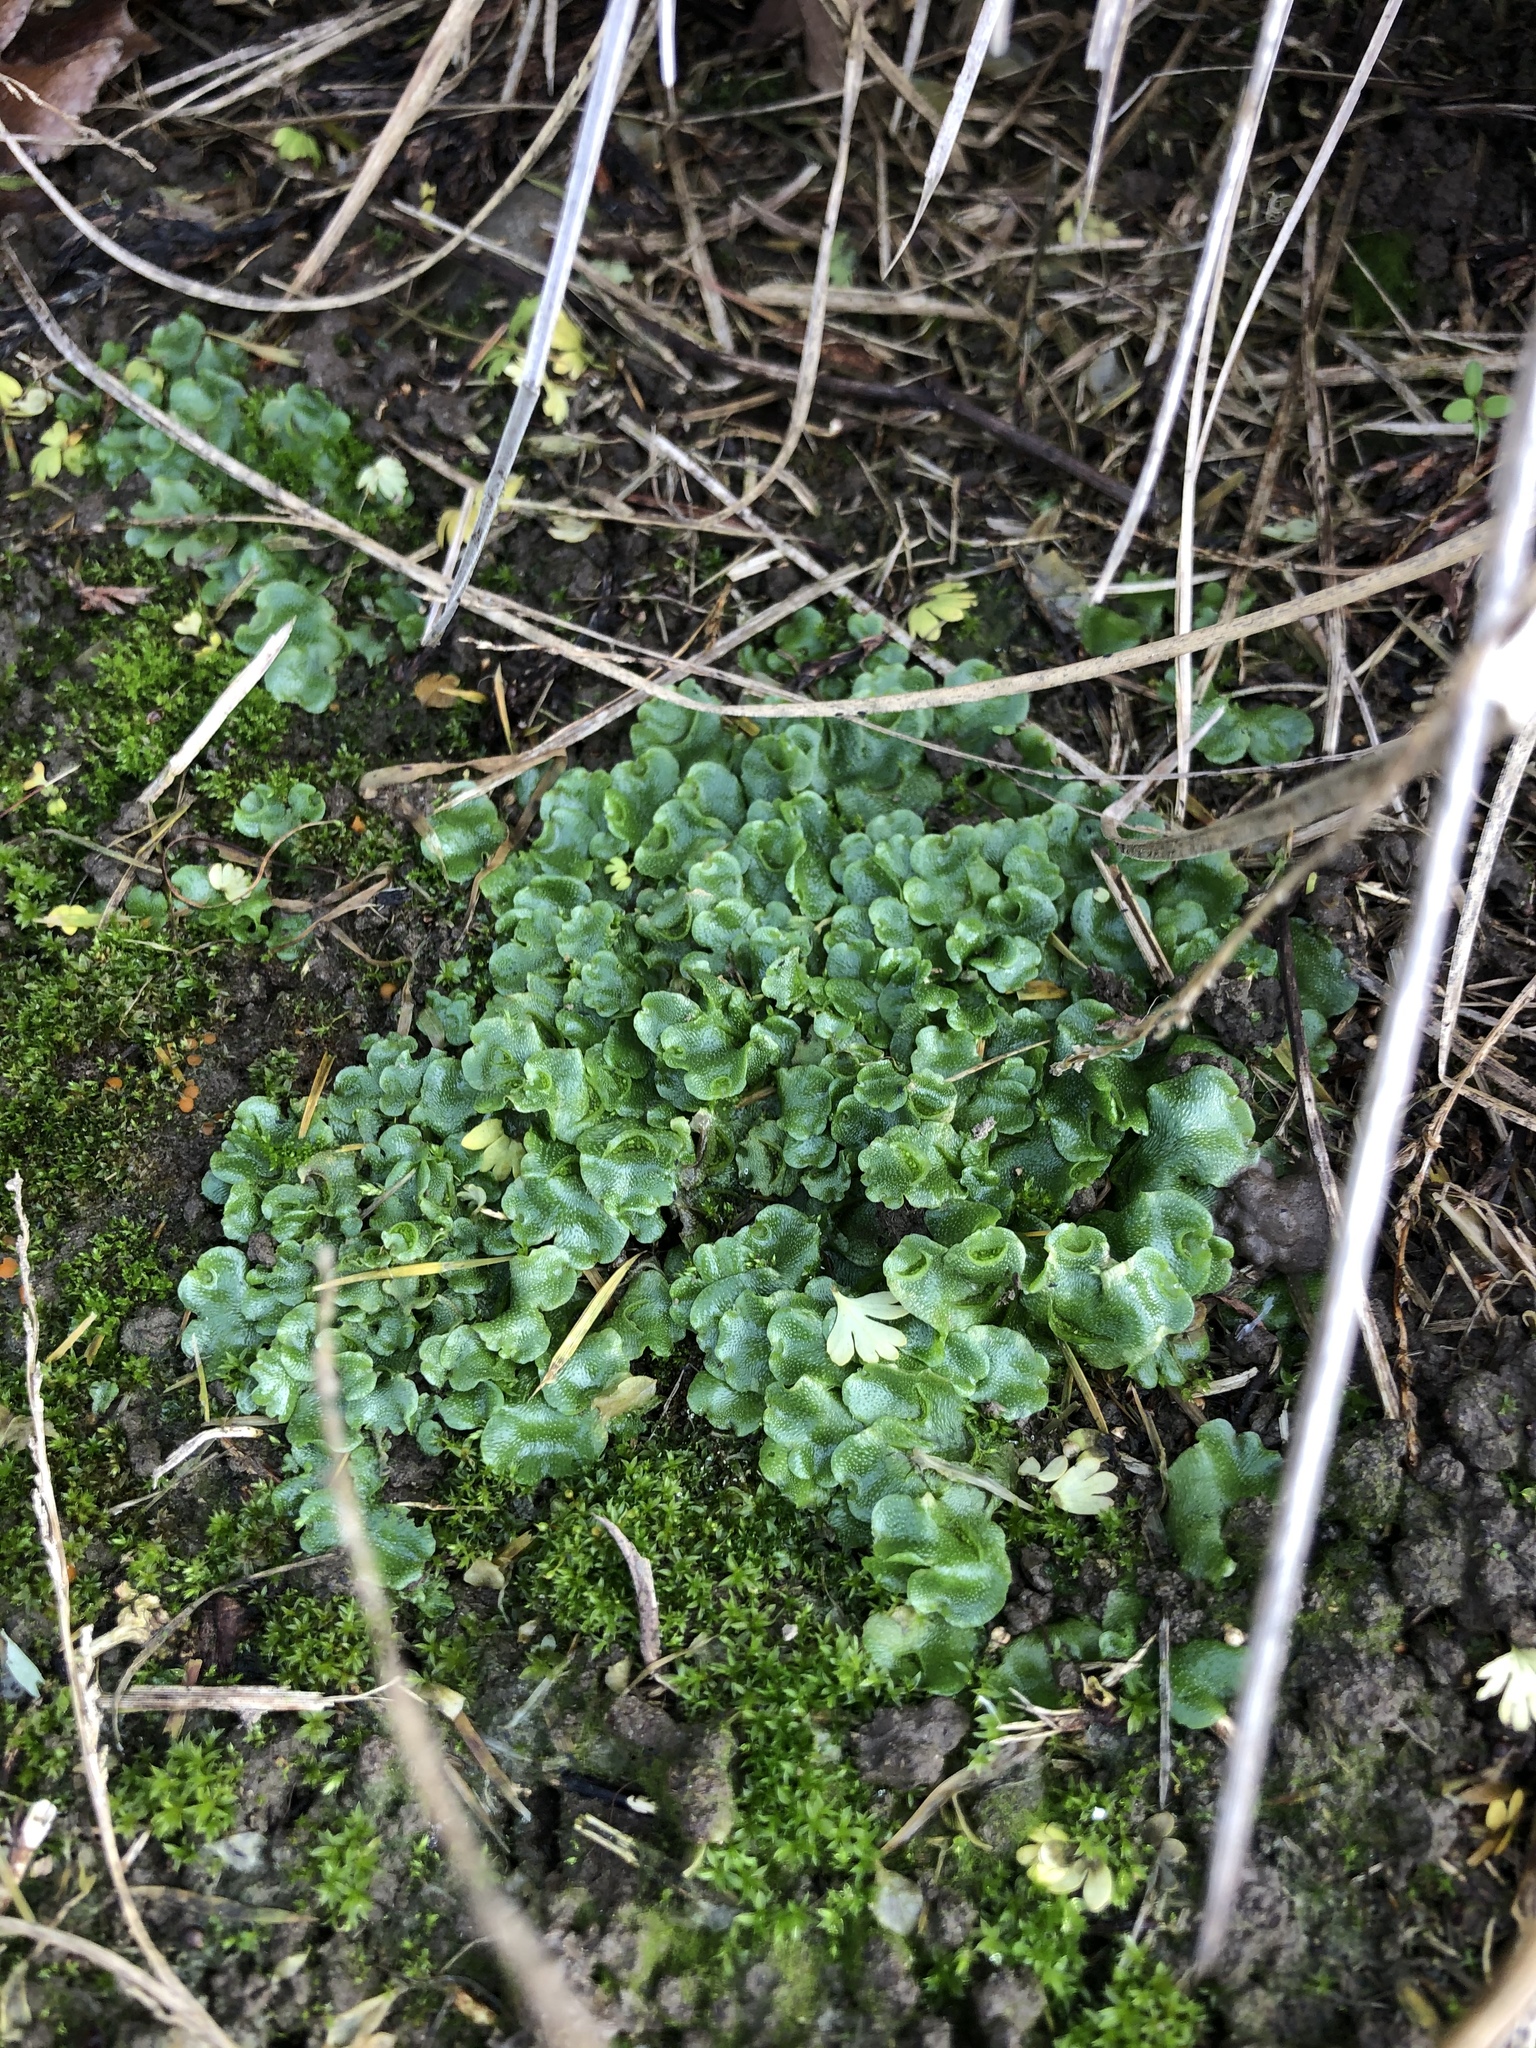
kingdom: Plantae
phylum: Marchantiophyta
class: Marchantiopsida
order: Lunulariales
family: Lunulariaceae
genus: Lunularia
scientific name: Lunularia cruciata
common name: Crescent-cup liverwort
